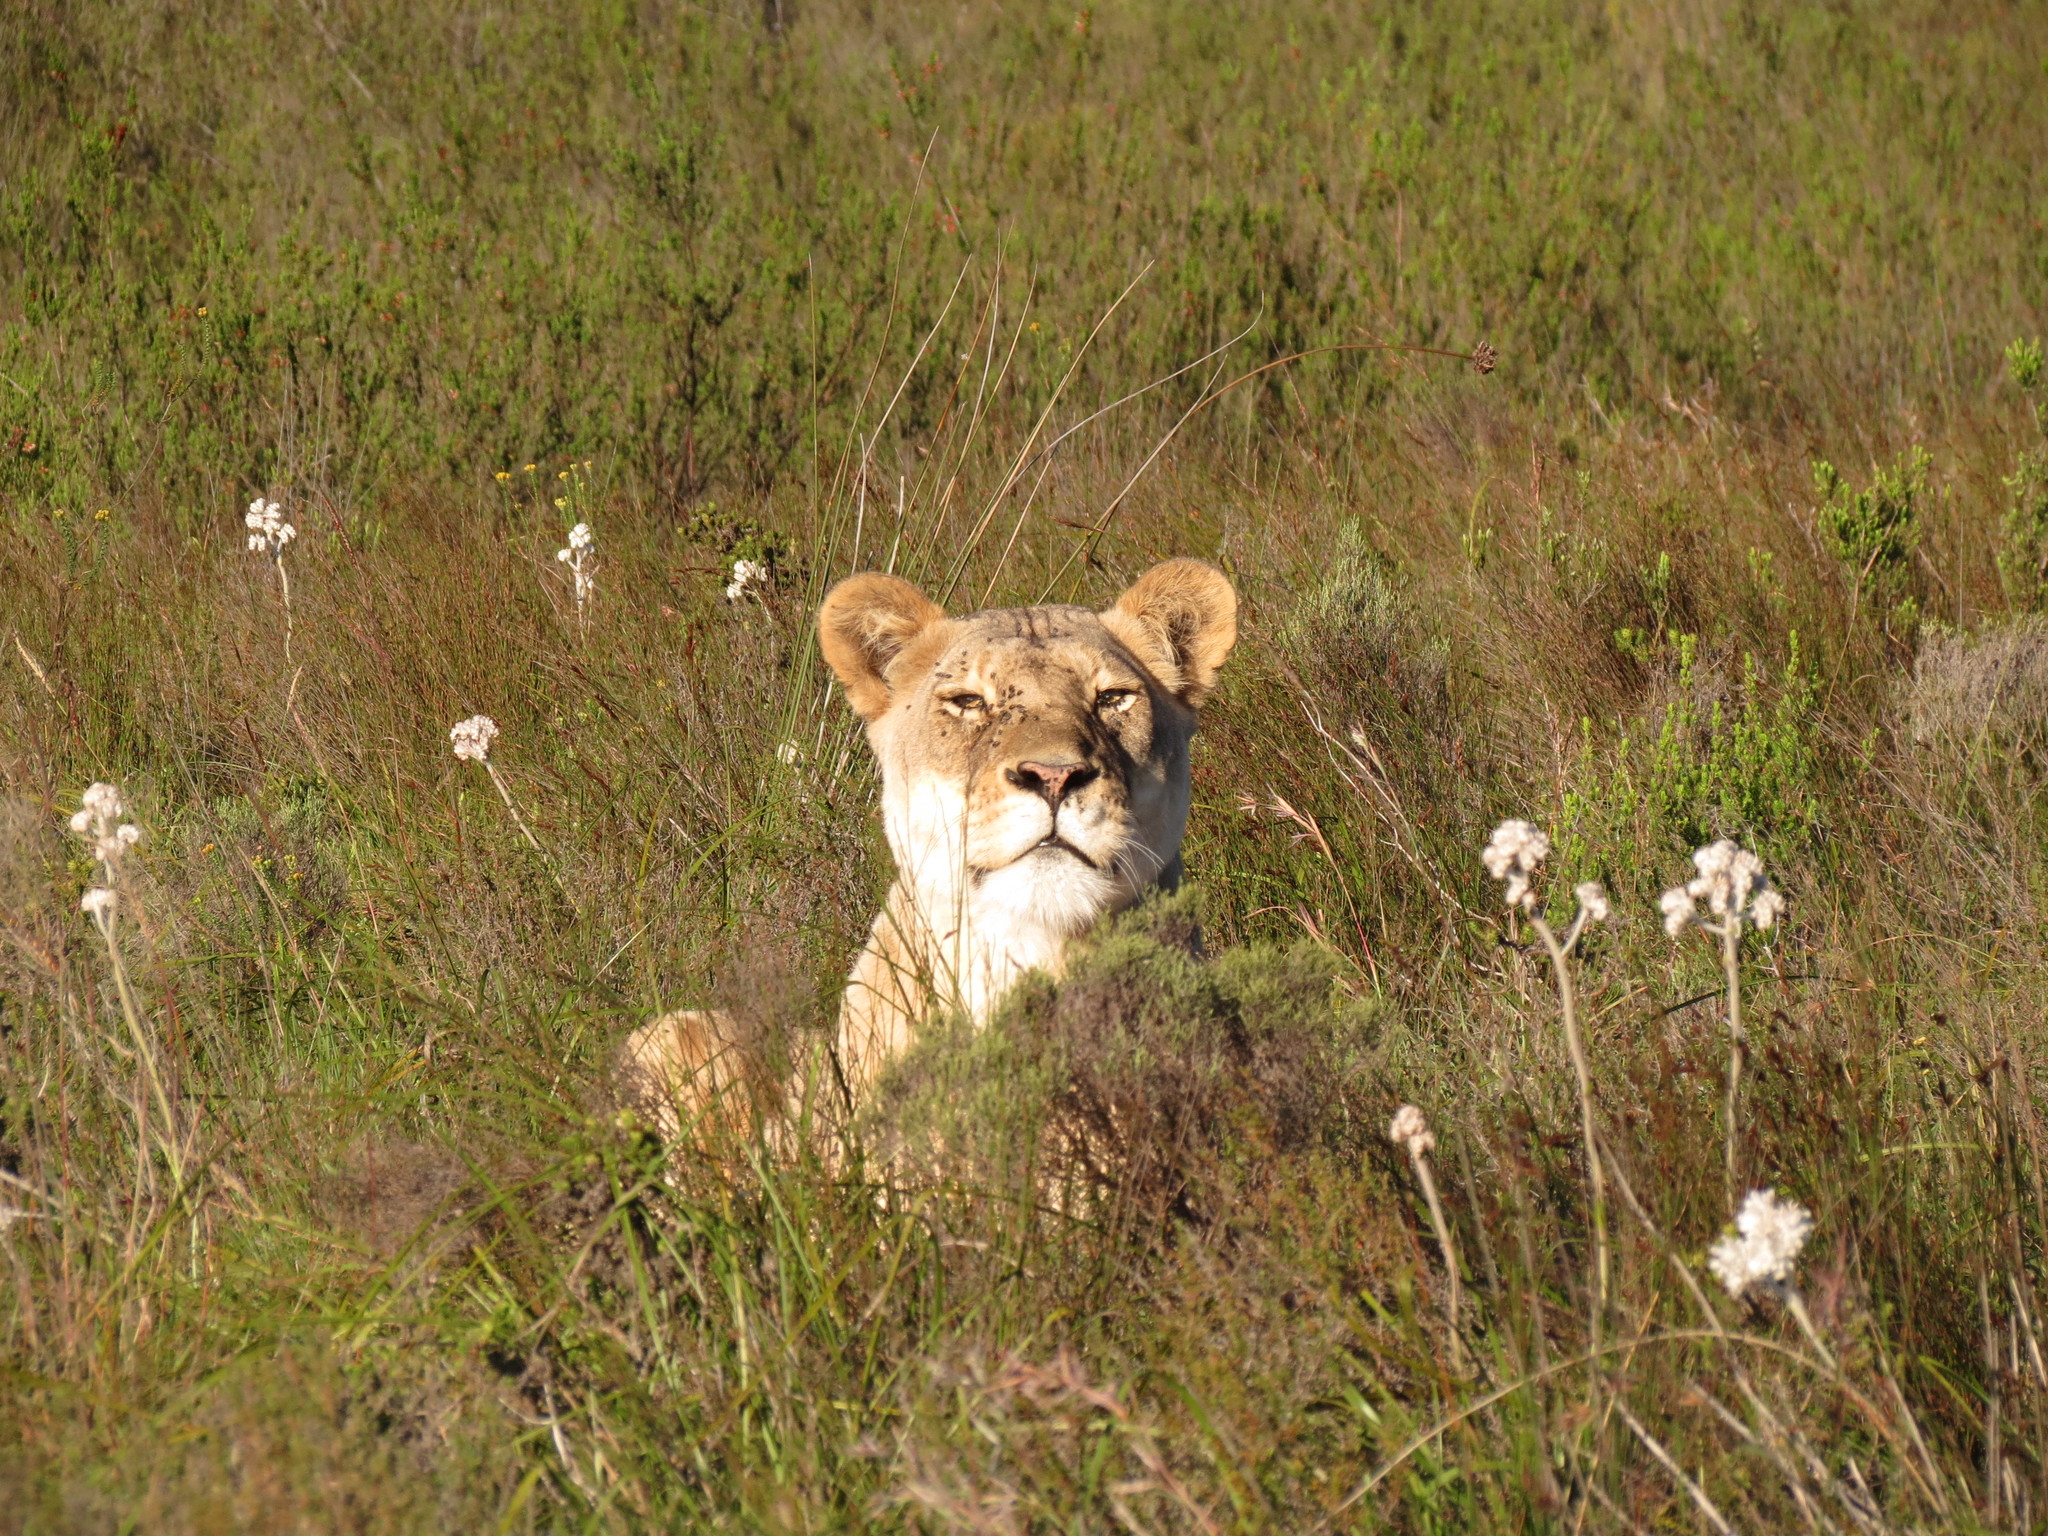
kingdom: Animalia
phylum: Chordata
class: Mammalia
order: Carnivora
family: Felidae
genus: Panthera
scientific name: Panthera leo
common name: Lion
